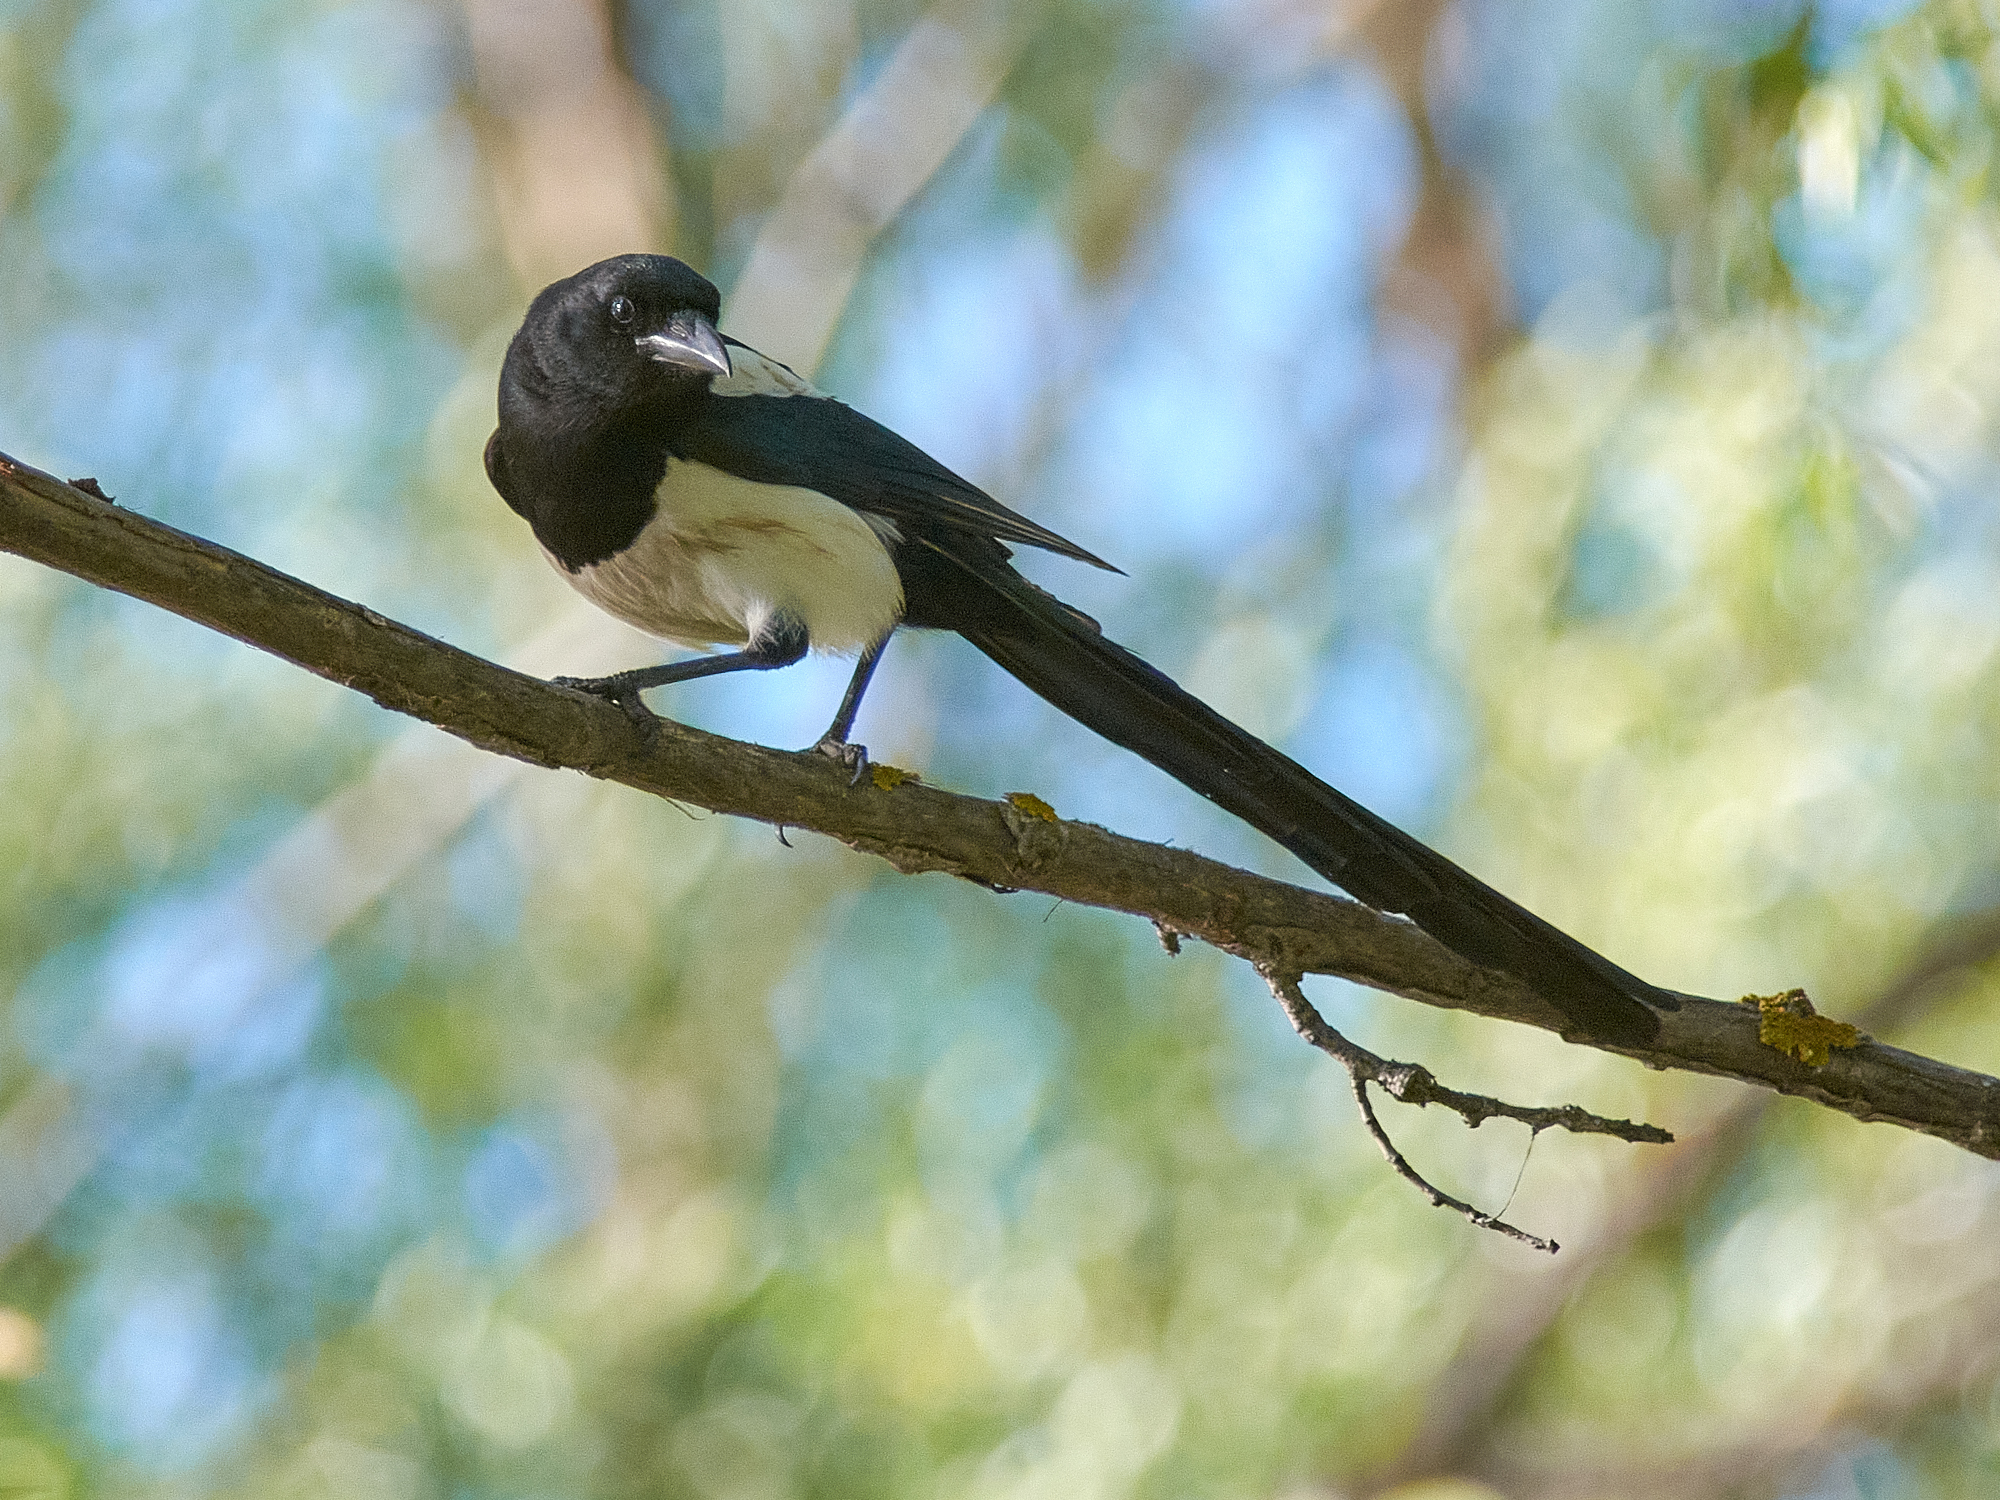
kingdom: Animalia
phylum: Chordata
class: Aves
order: Passeriformes
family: Corvidae
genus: Pica
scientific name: Pica pica
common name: Eurasian magpie
